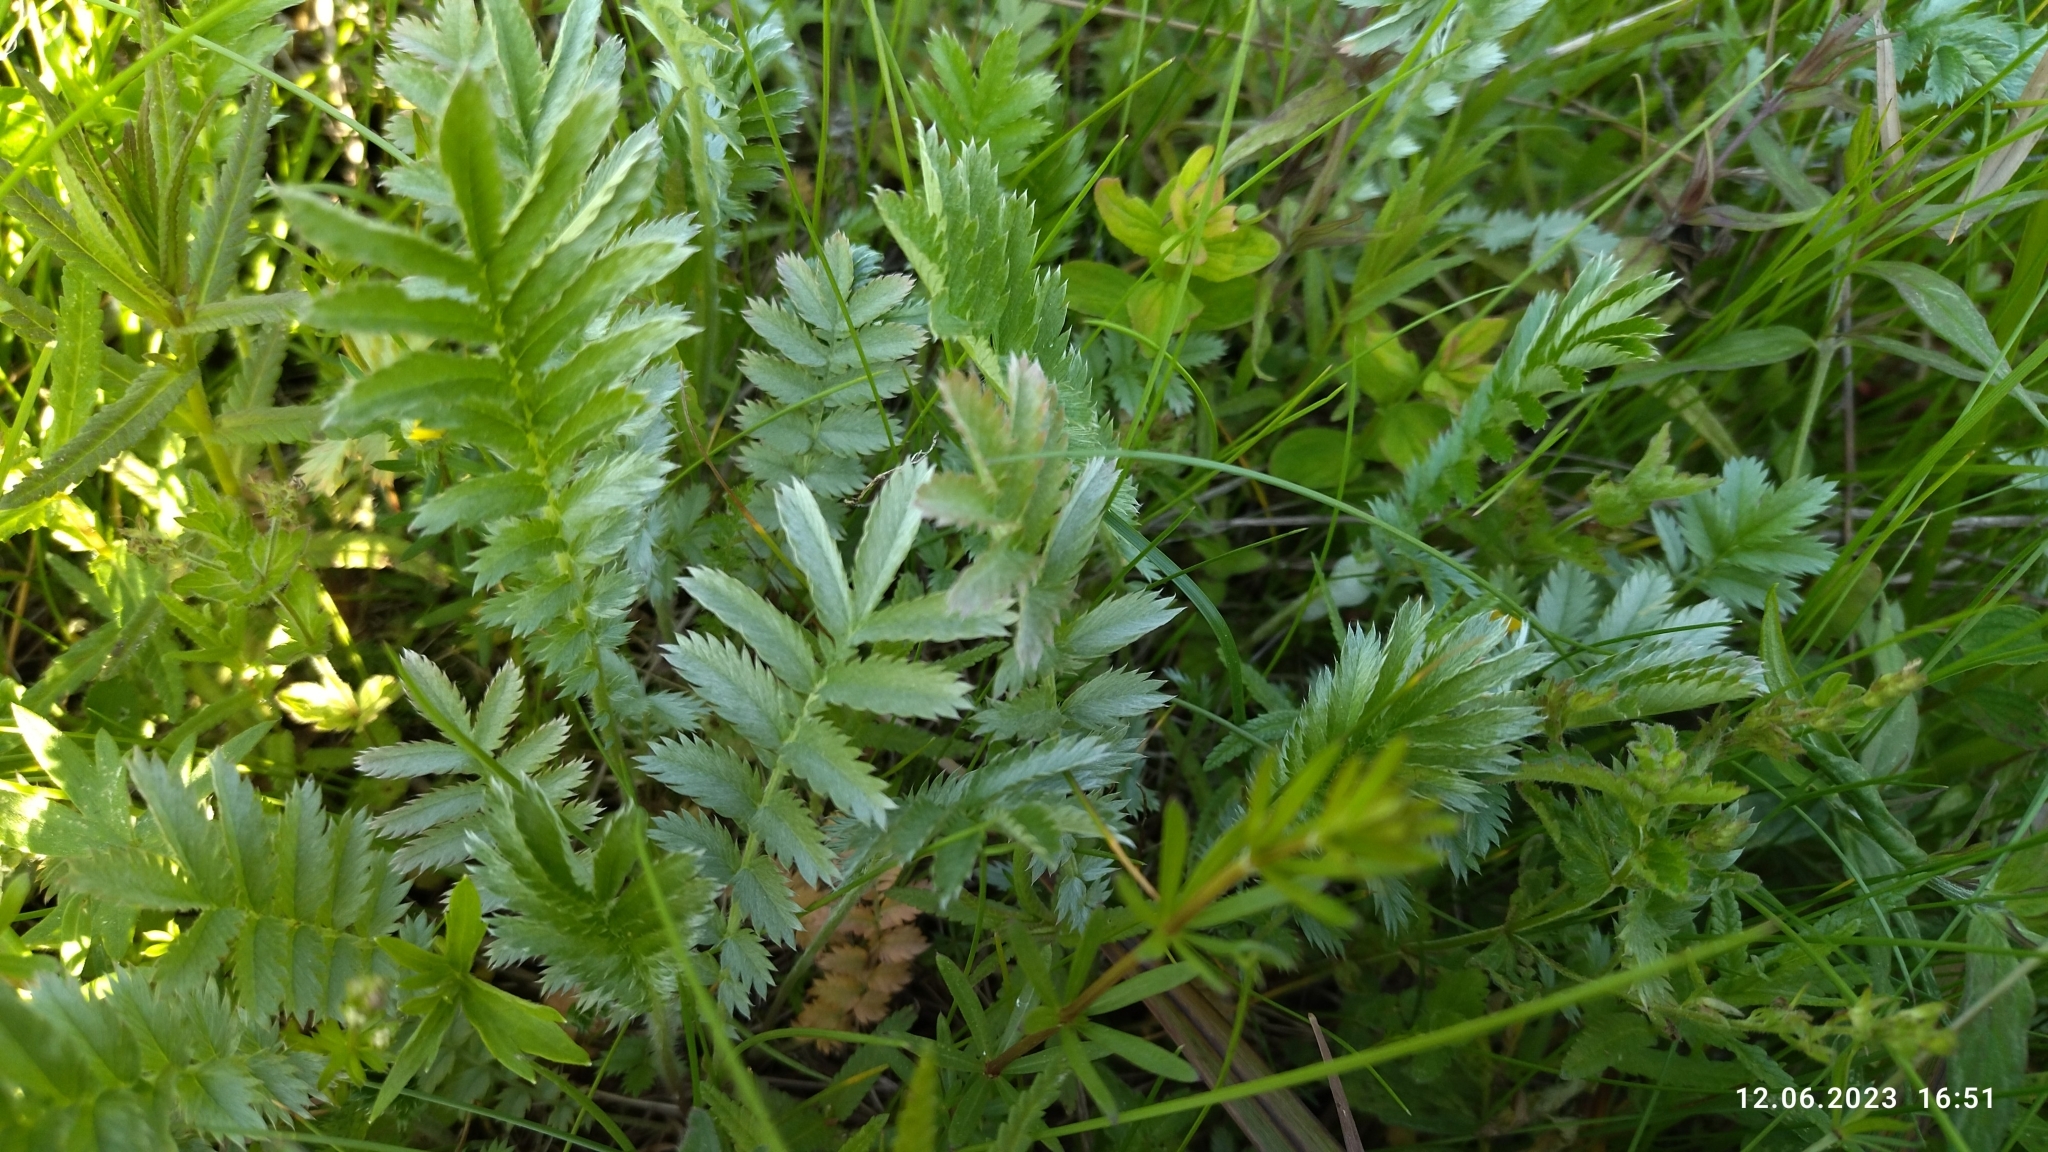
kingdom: Plantae
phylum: Tracheophyta
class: Magnoliopsida
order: Rosales
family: Rosaceae
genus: Argentina
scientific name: Argentina anserina
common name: Common silverweed
